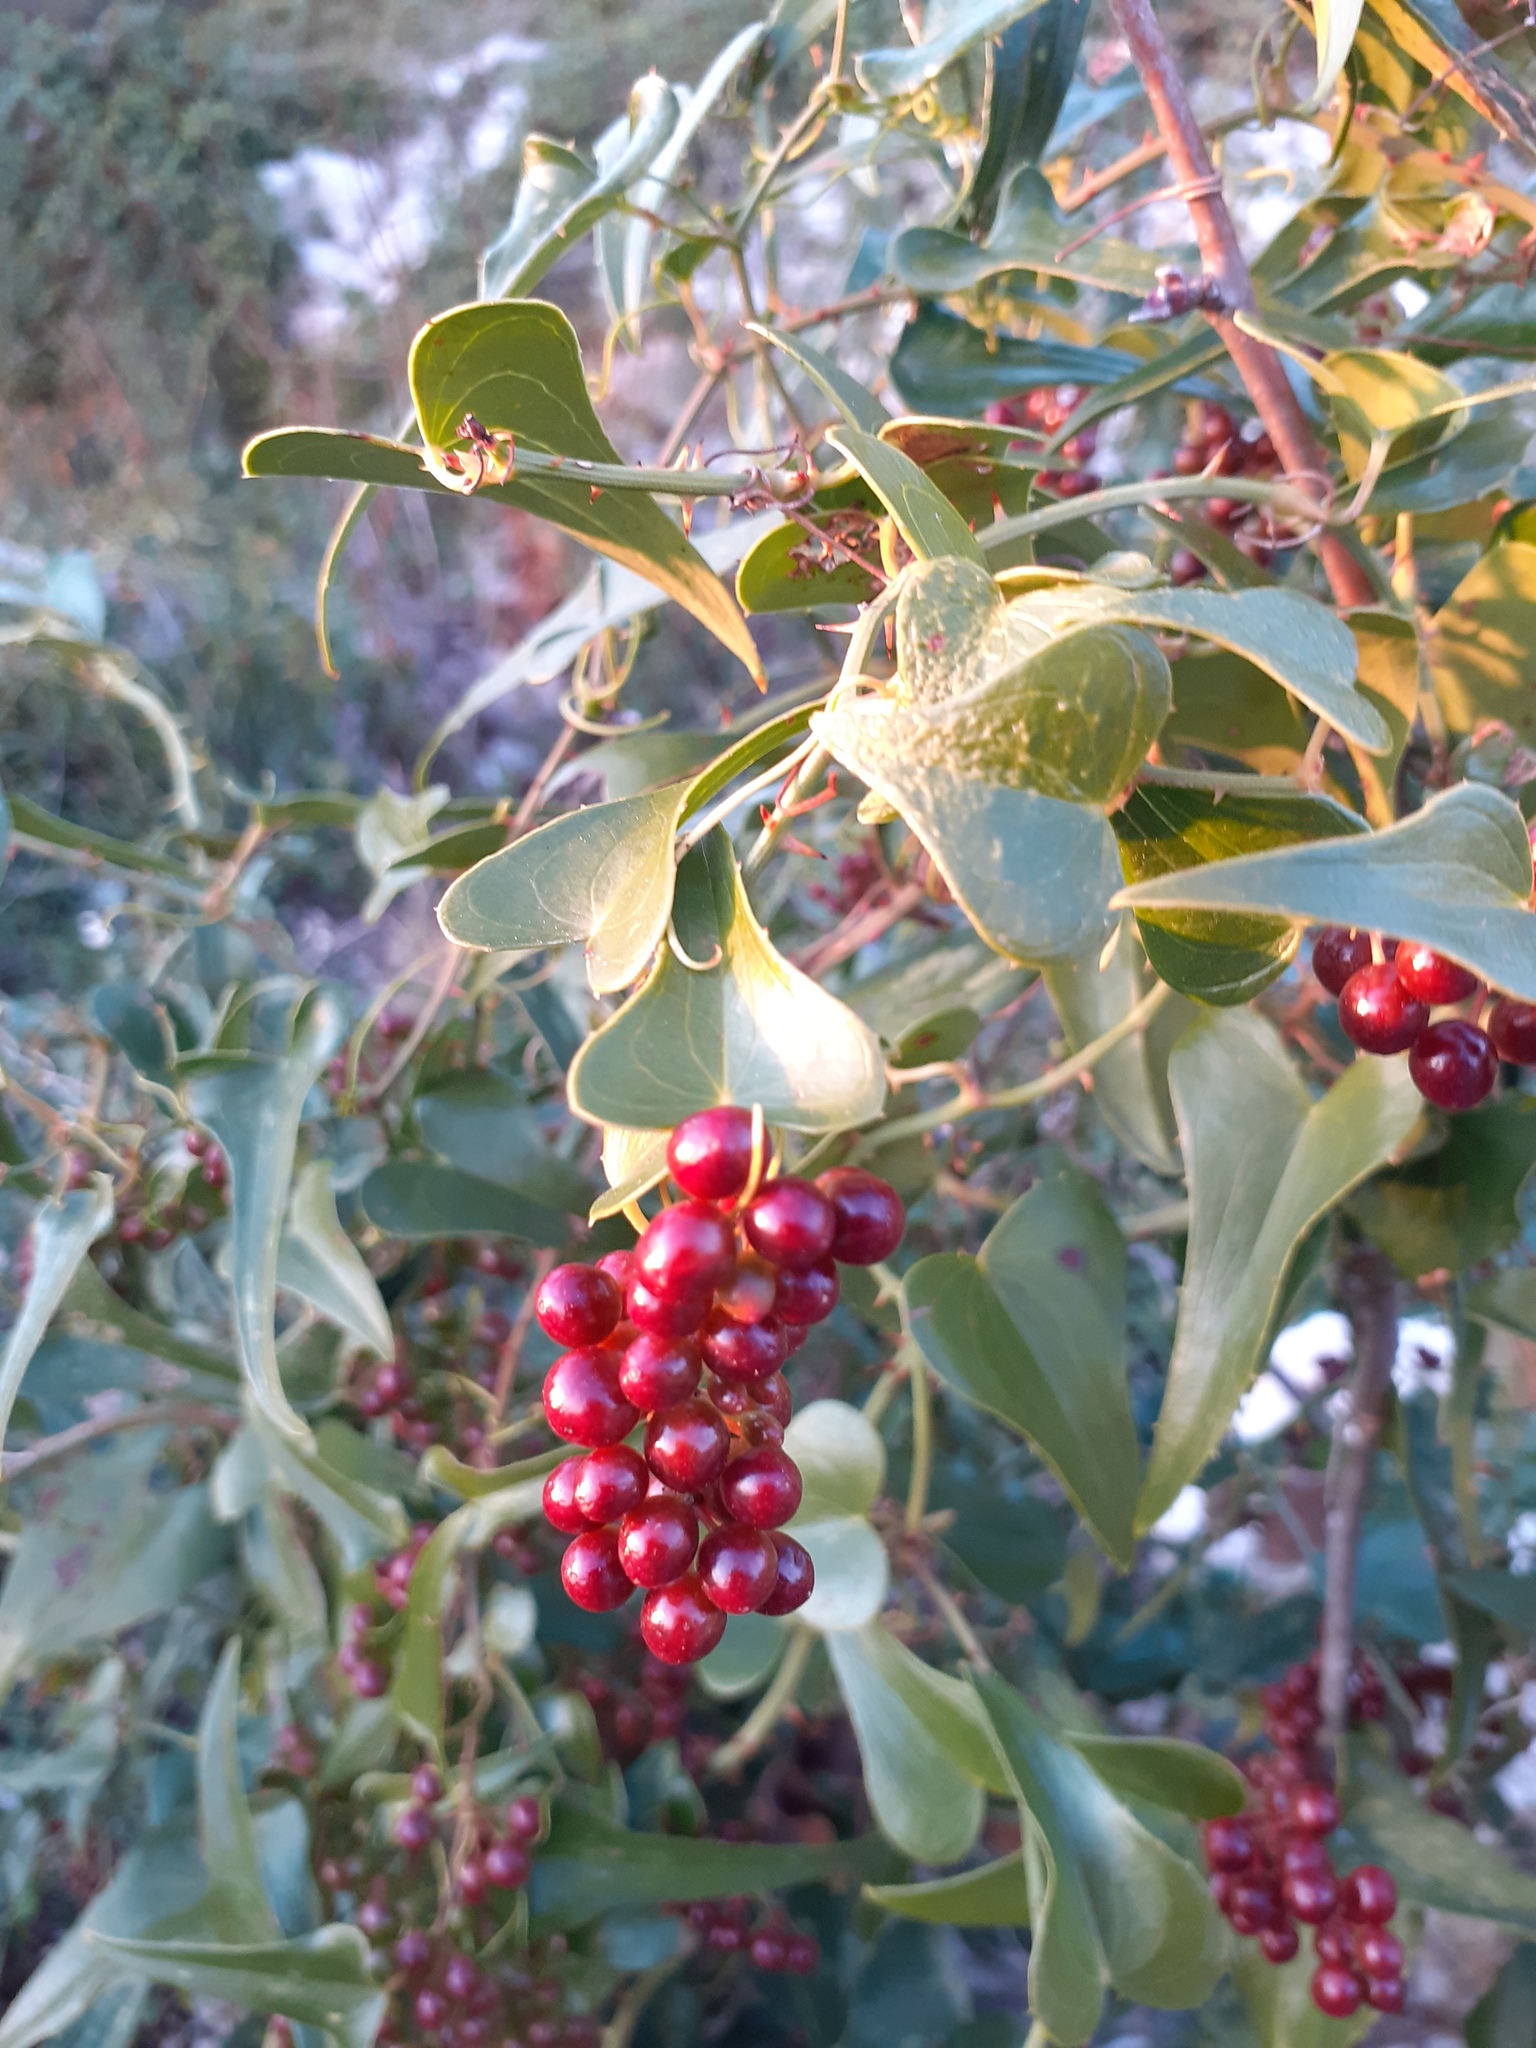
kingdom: Plantae
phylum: Tracheophyta
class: Liliopsida
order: Liliales
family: Smilacaceae
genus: Smilax
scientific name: Smilax aspera
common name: Common smilax
